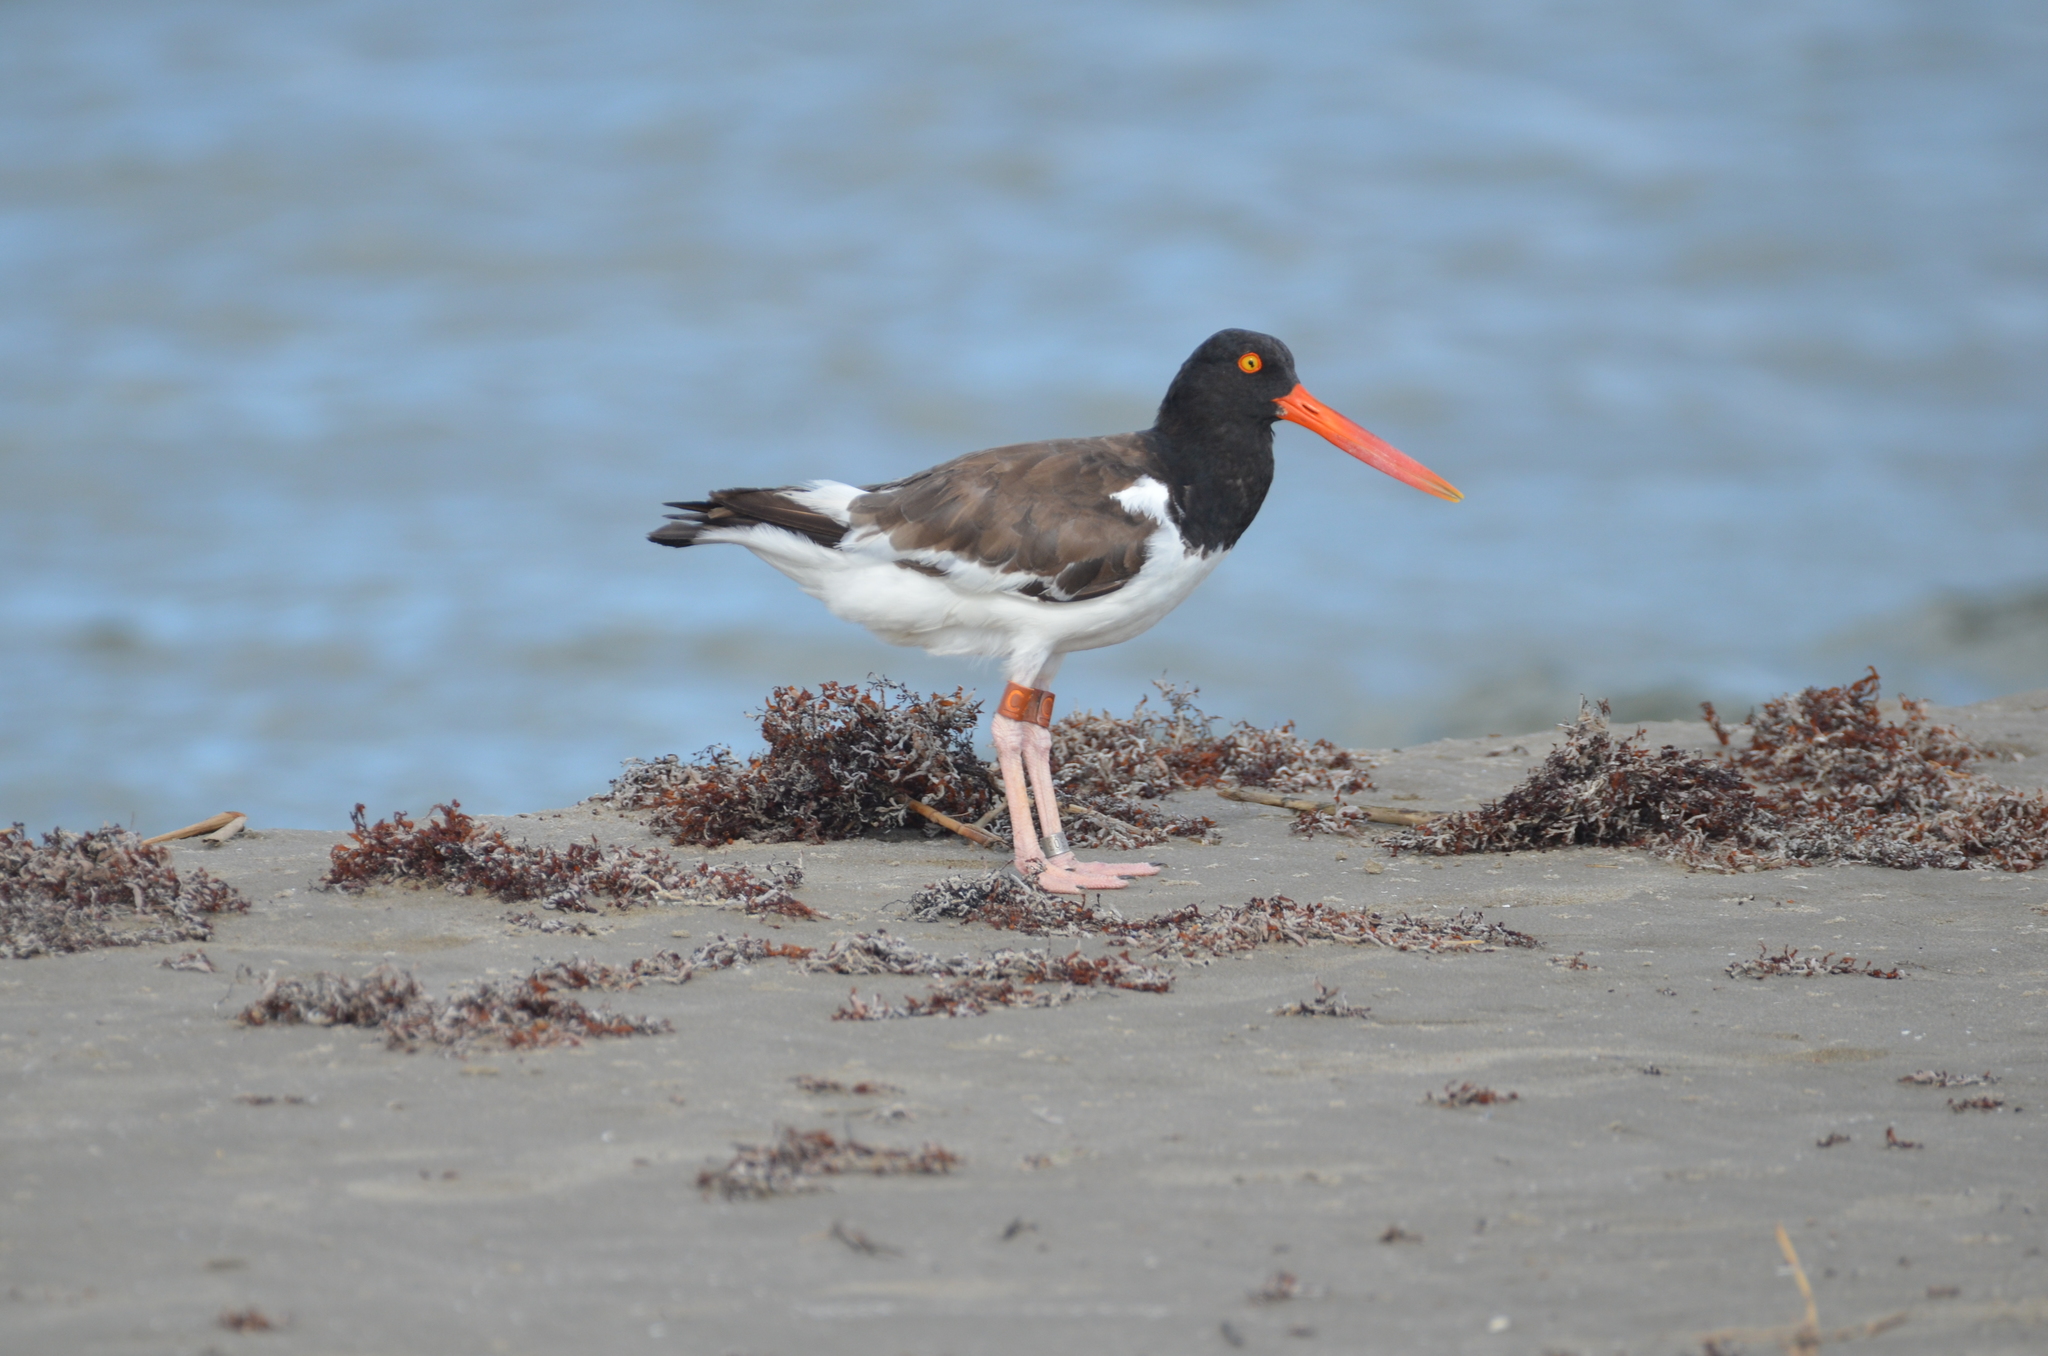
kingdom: Animalia
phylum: Chordata
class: Aves
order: Charadriiformes
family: Haematopodidae
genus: Haematopus
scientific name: Haematopus palliatus
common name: American oystercatcher
